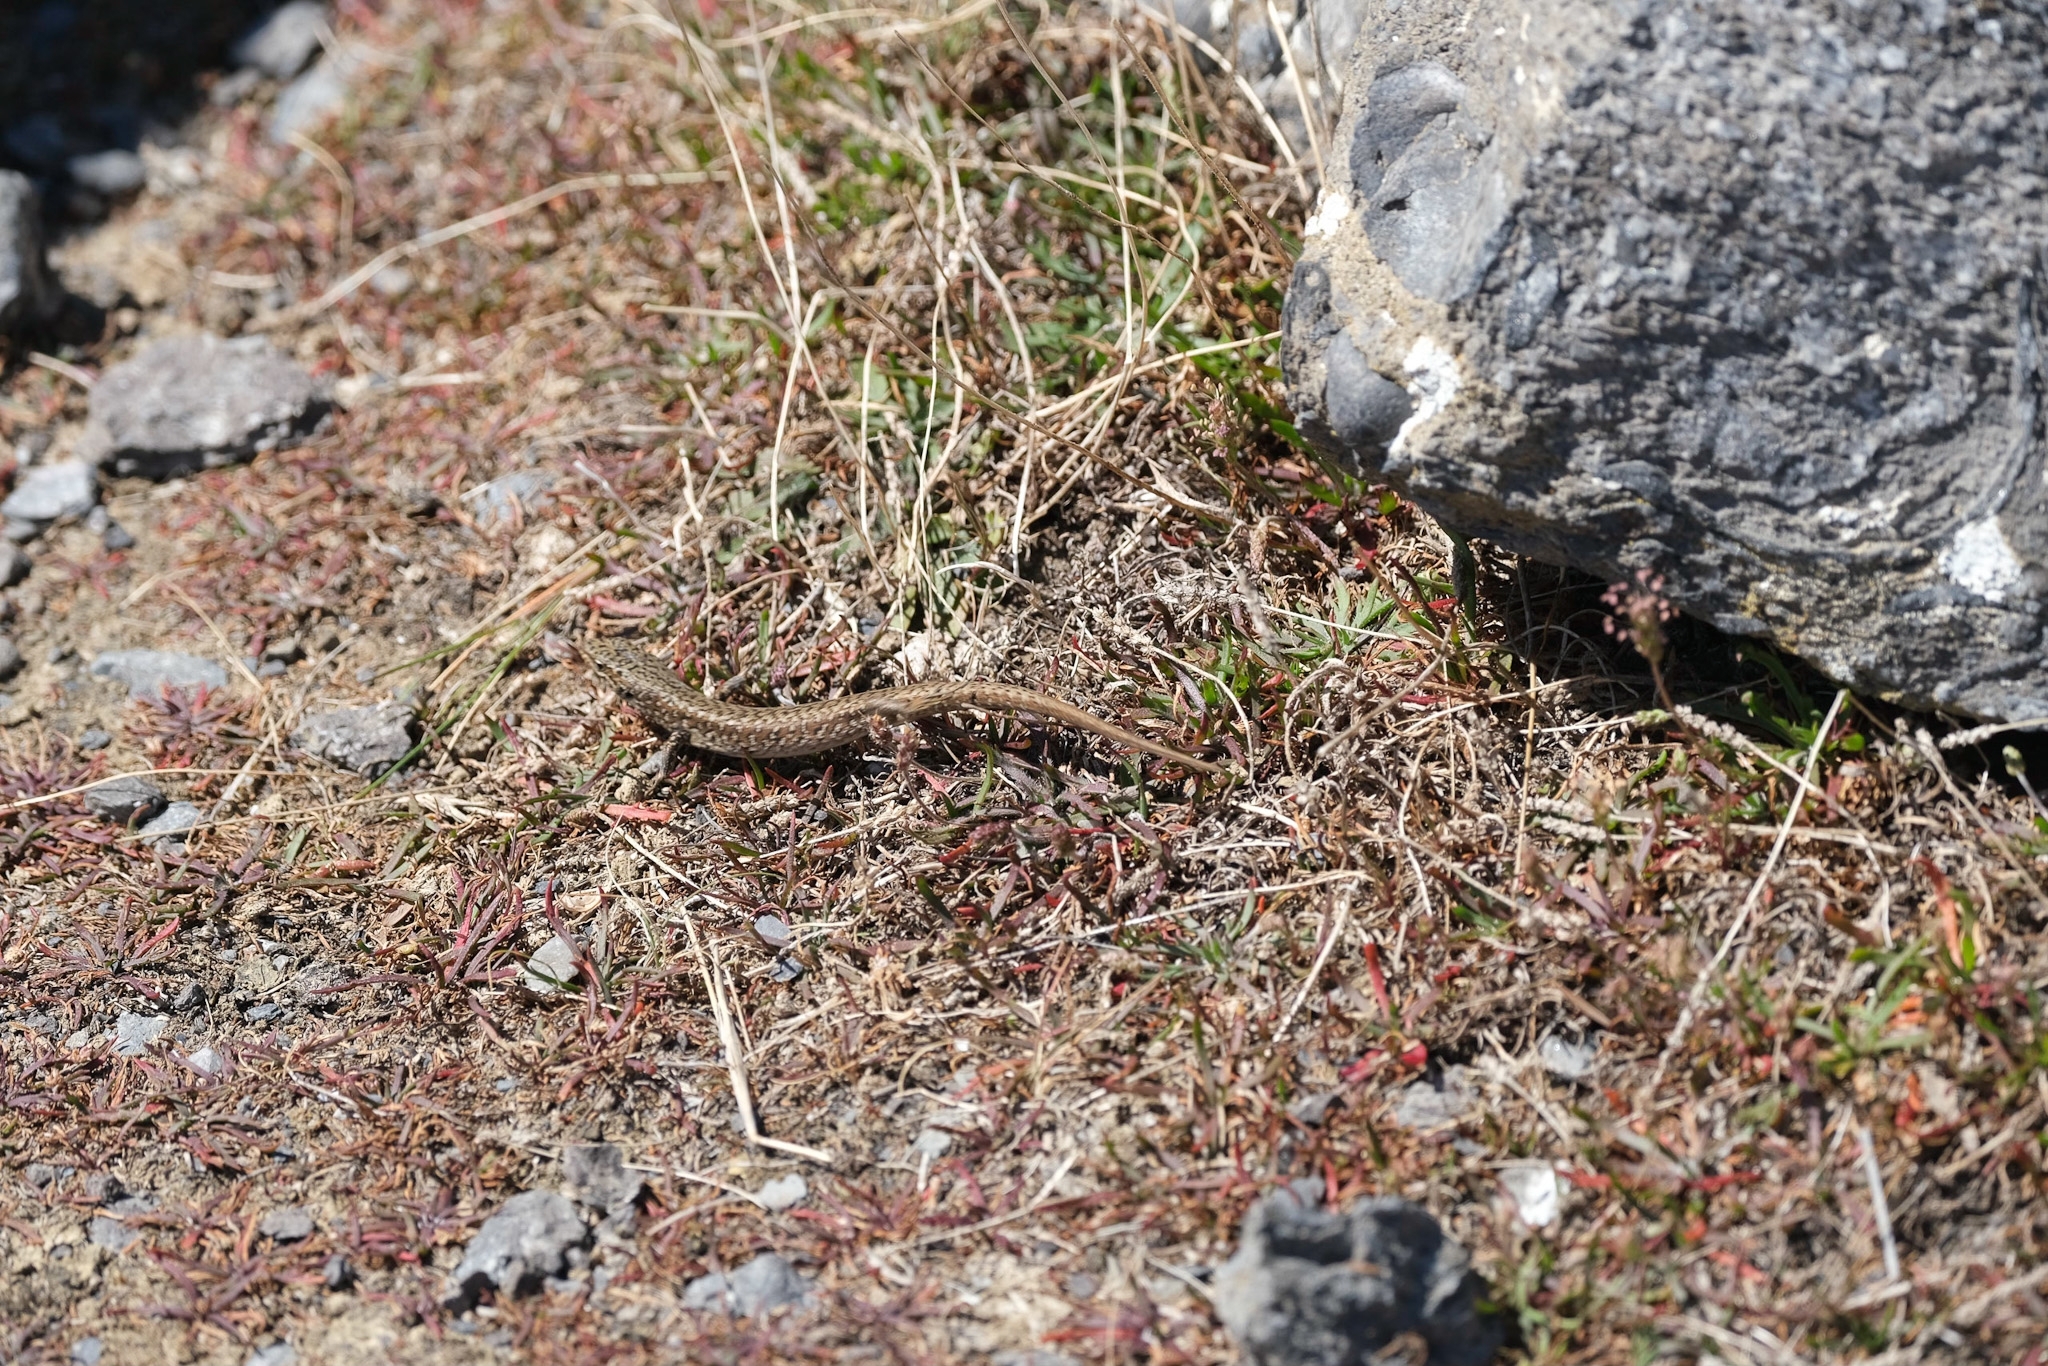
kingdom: Animalia
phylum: Chordata
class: Squamata
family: Scincidae
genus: Carinascincus
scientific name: Carinascincus ocellatus
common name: Ocellated cool-skink
